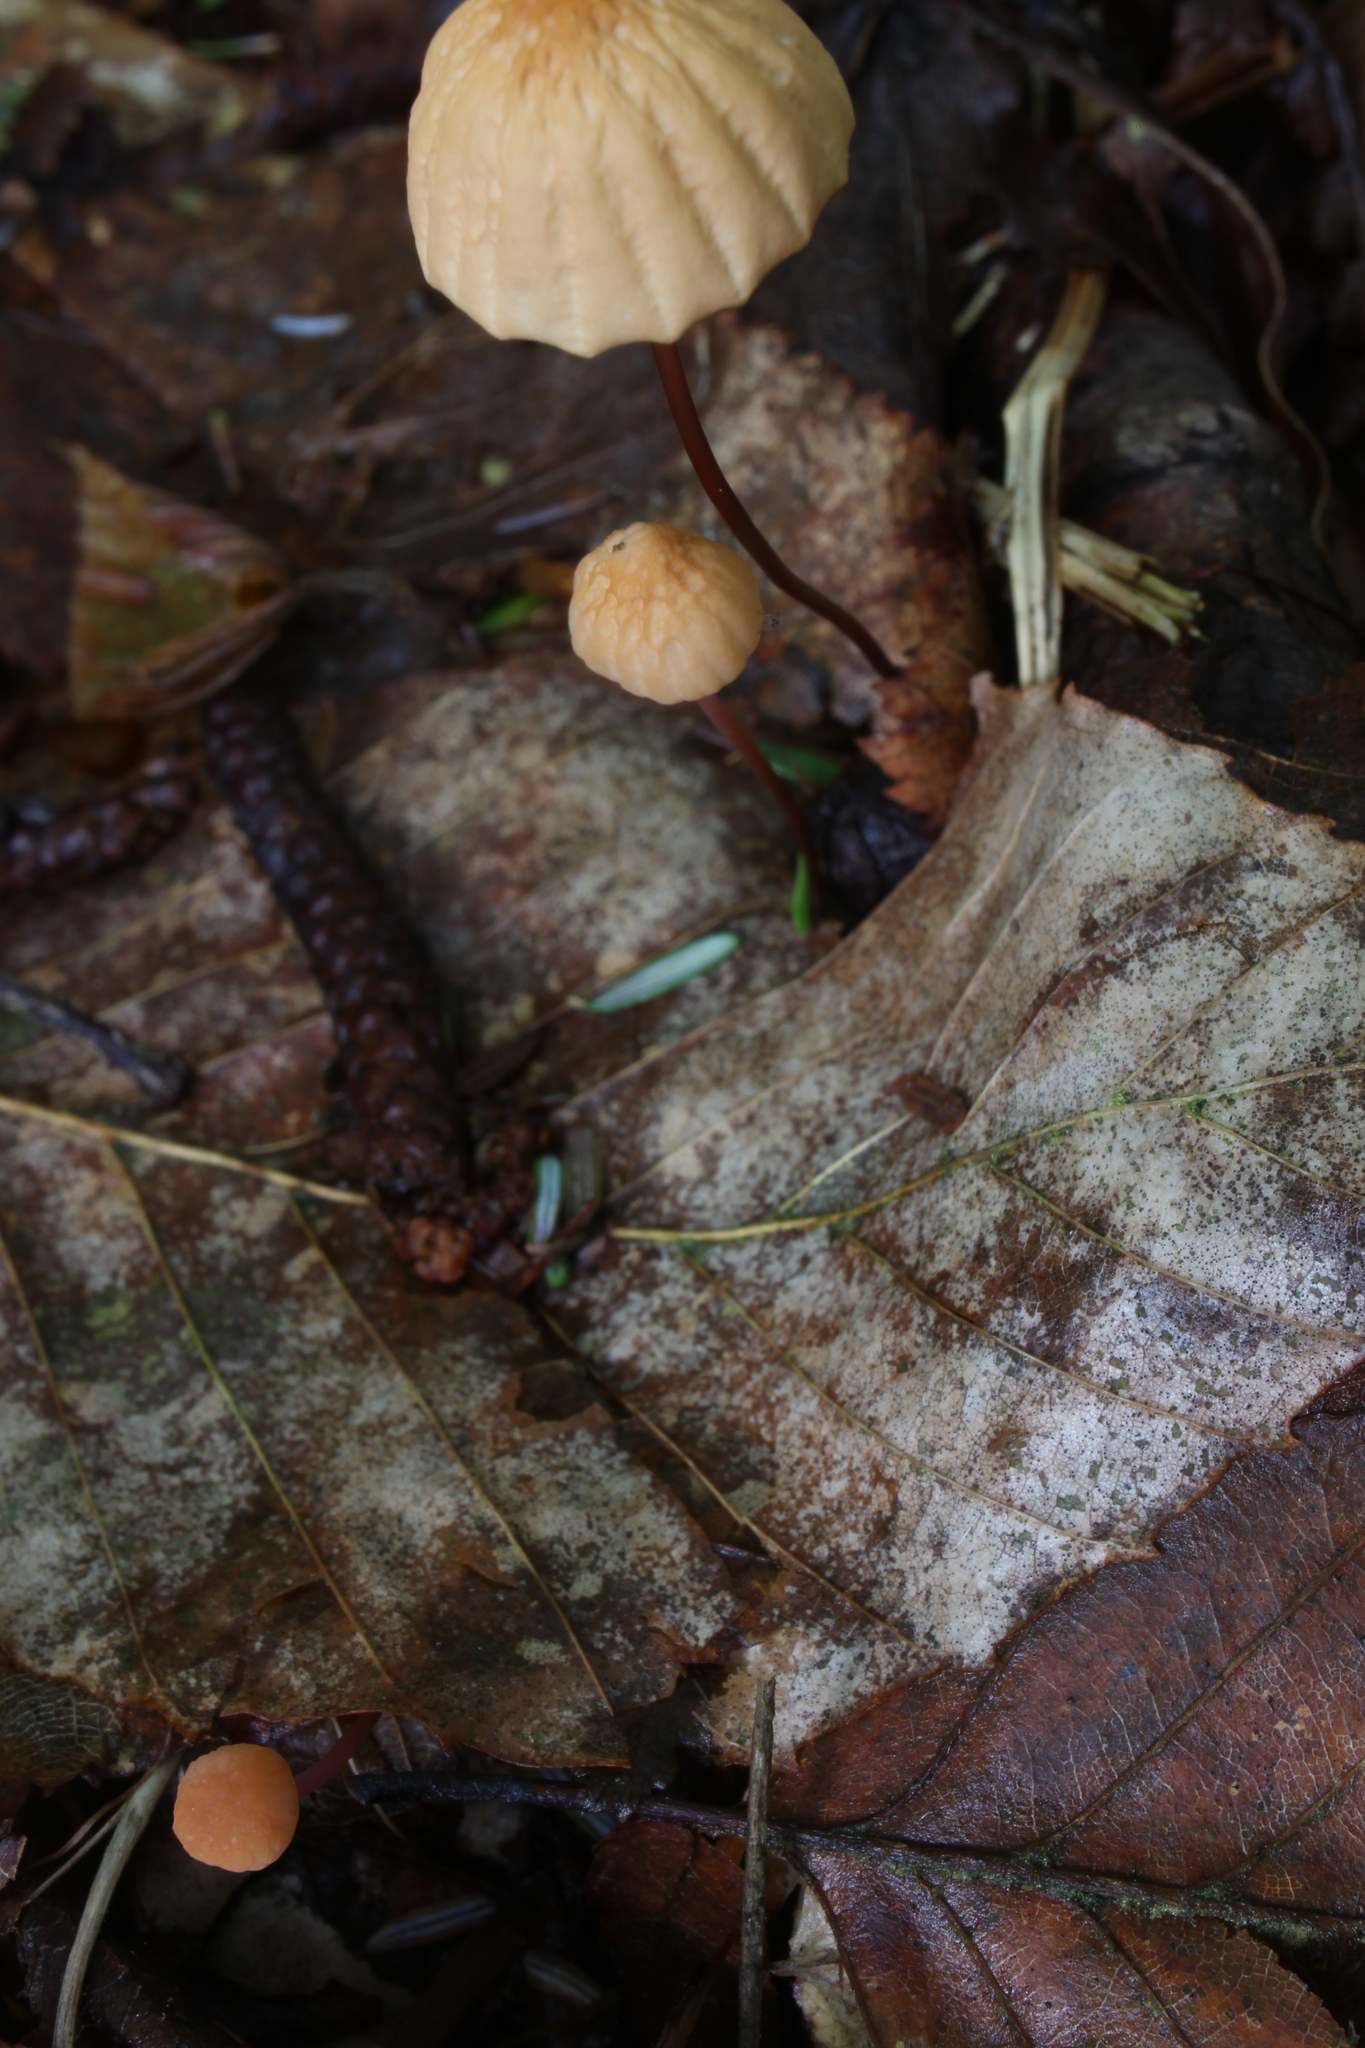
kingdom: Fungi
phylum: Basidiomycota
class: Agaricomycetes
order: Agaricales
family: Marasmiaceae
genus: Marasmius
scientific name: Marasmius siccus
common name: Orange pinwheel
